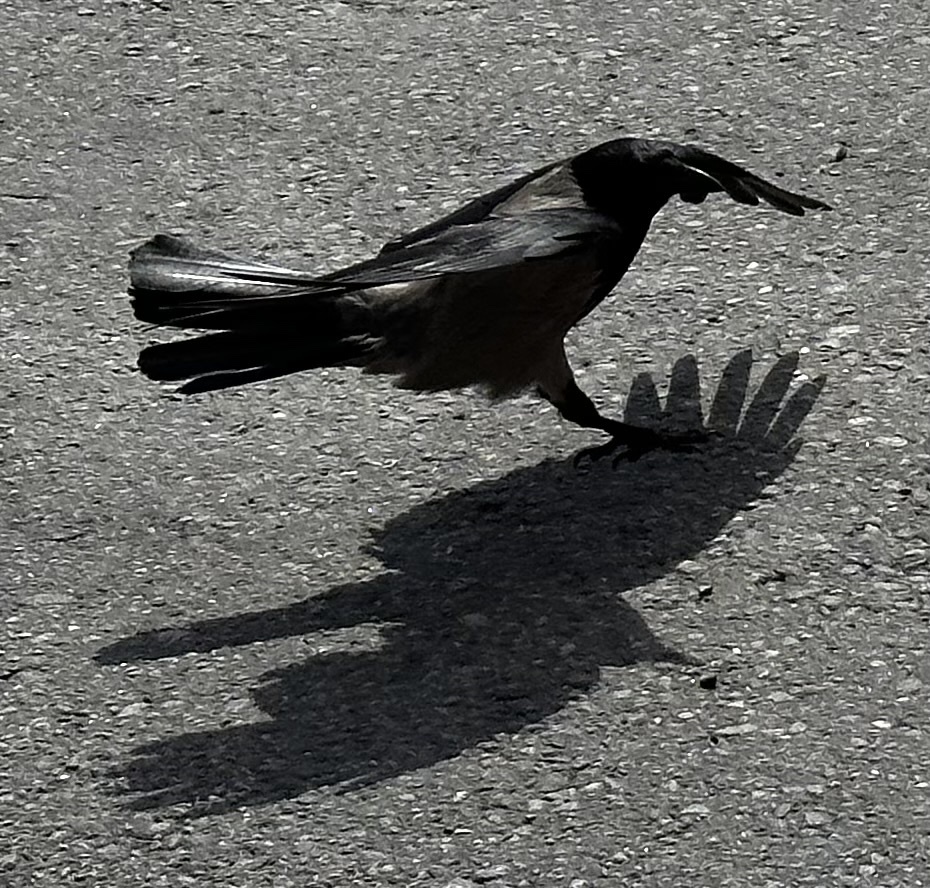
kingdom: Animalia
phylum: Chordata
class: Aves
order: Passeriformes
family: Corvidae
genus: Corvus
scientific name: Corvus cornix
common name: Hooded crow
